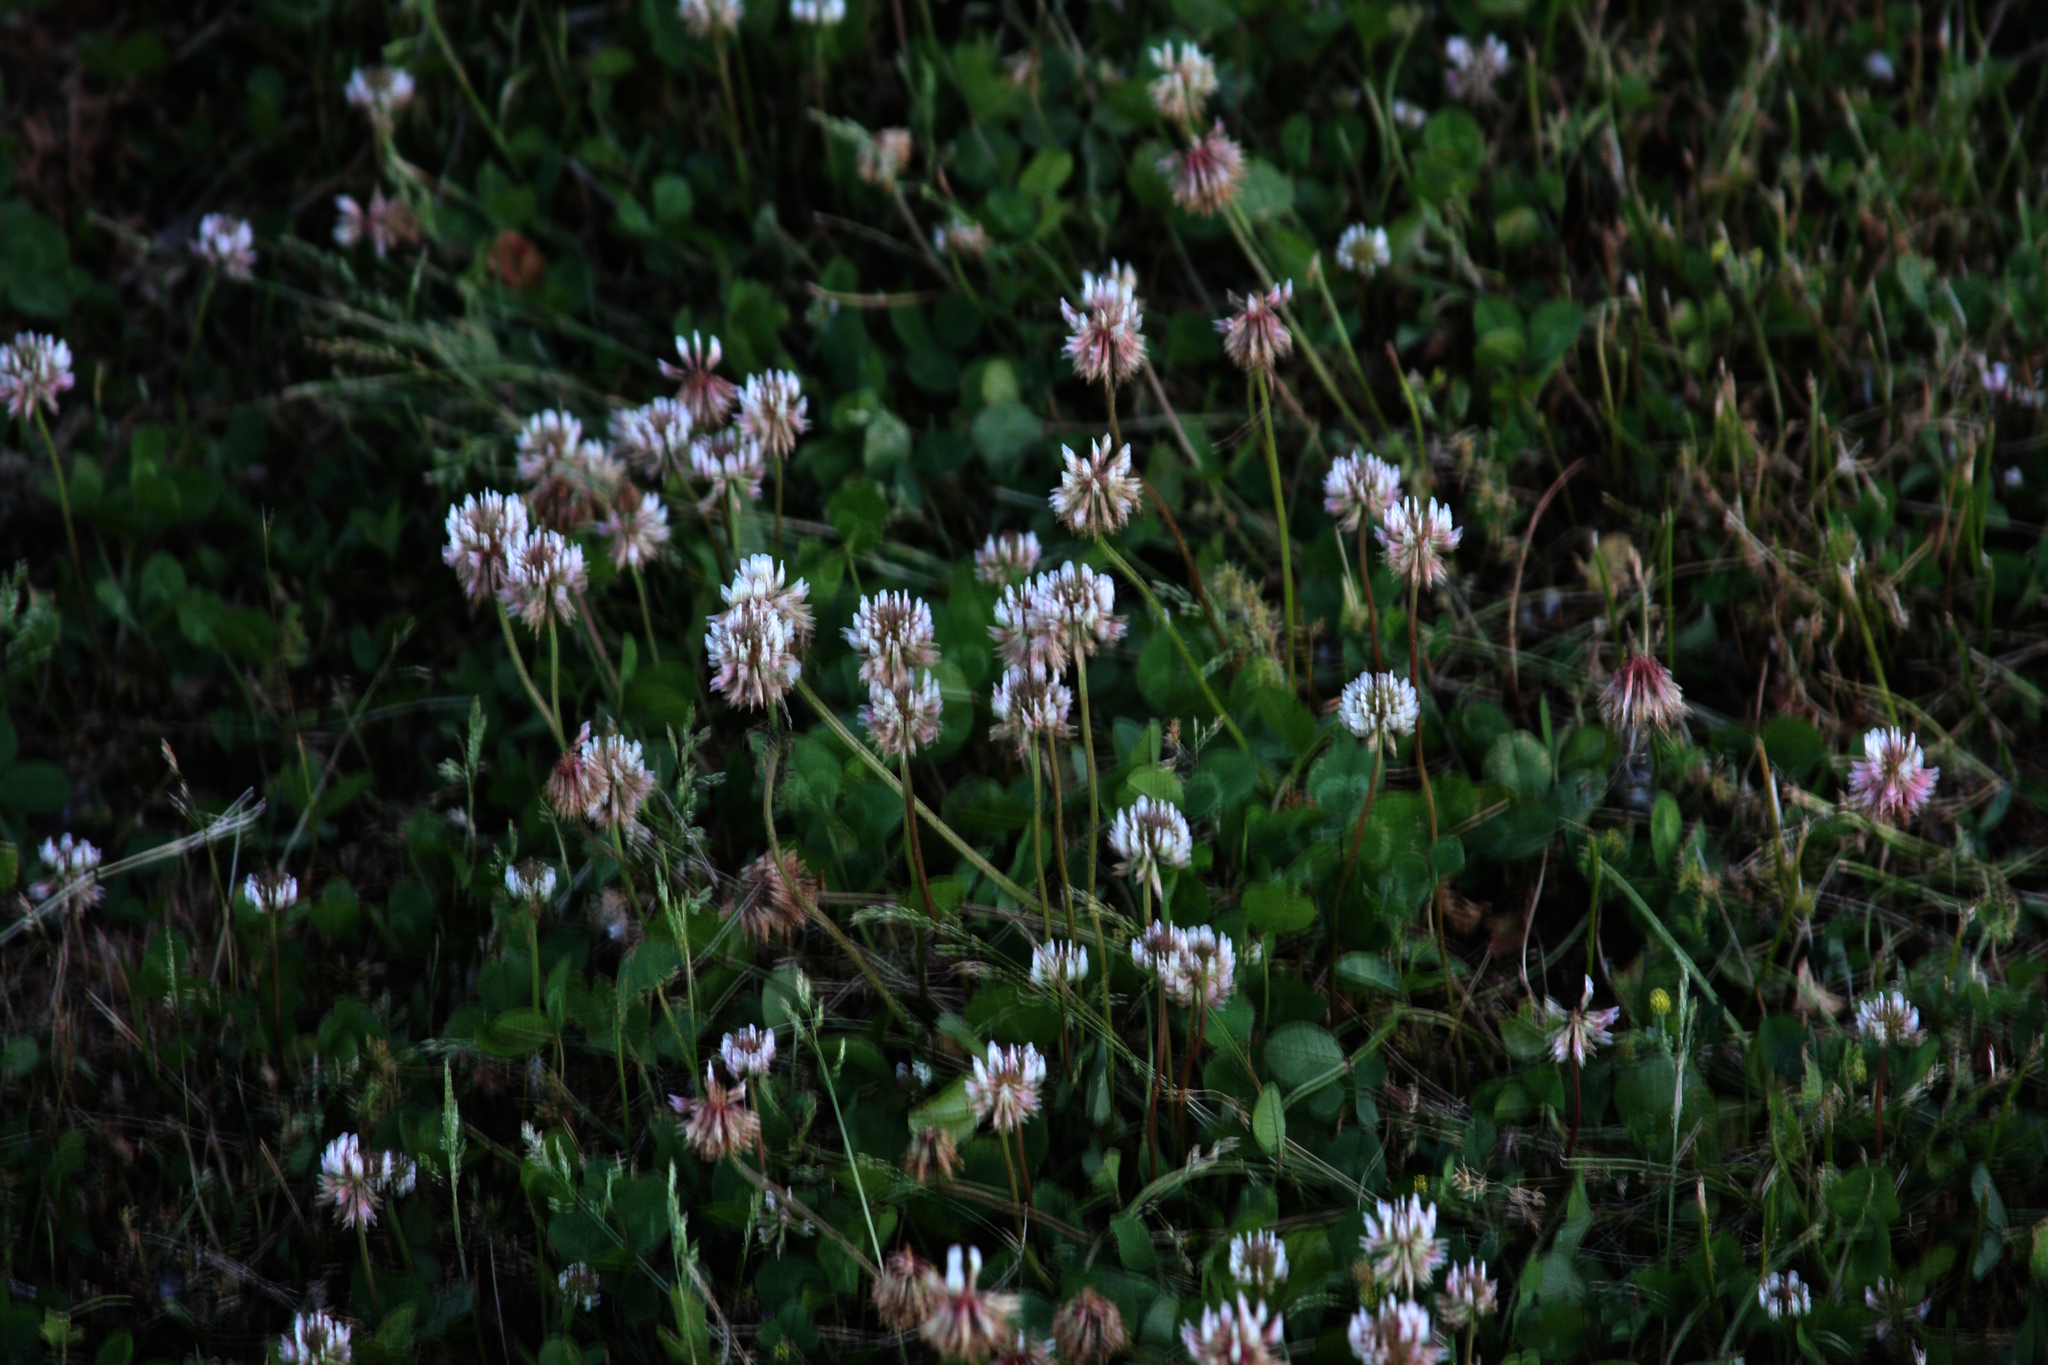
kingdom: Plantae
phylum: Tracheophyta
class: Magnoliopsida
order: Fabales
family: Fabaceae
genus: Trifolium
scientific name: Trifolium repens
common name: White clover
